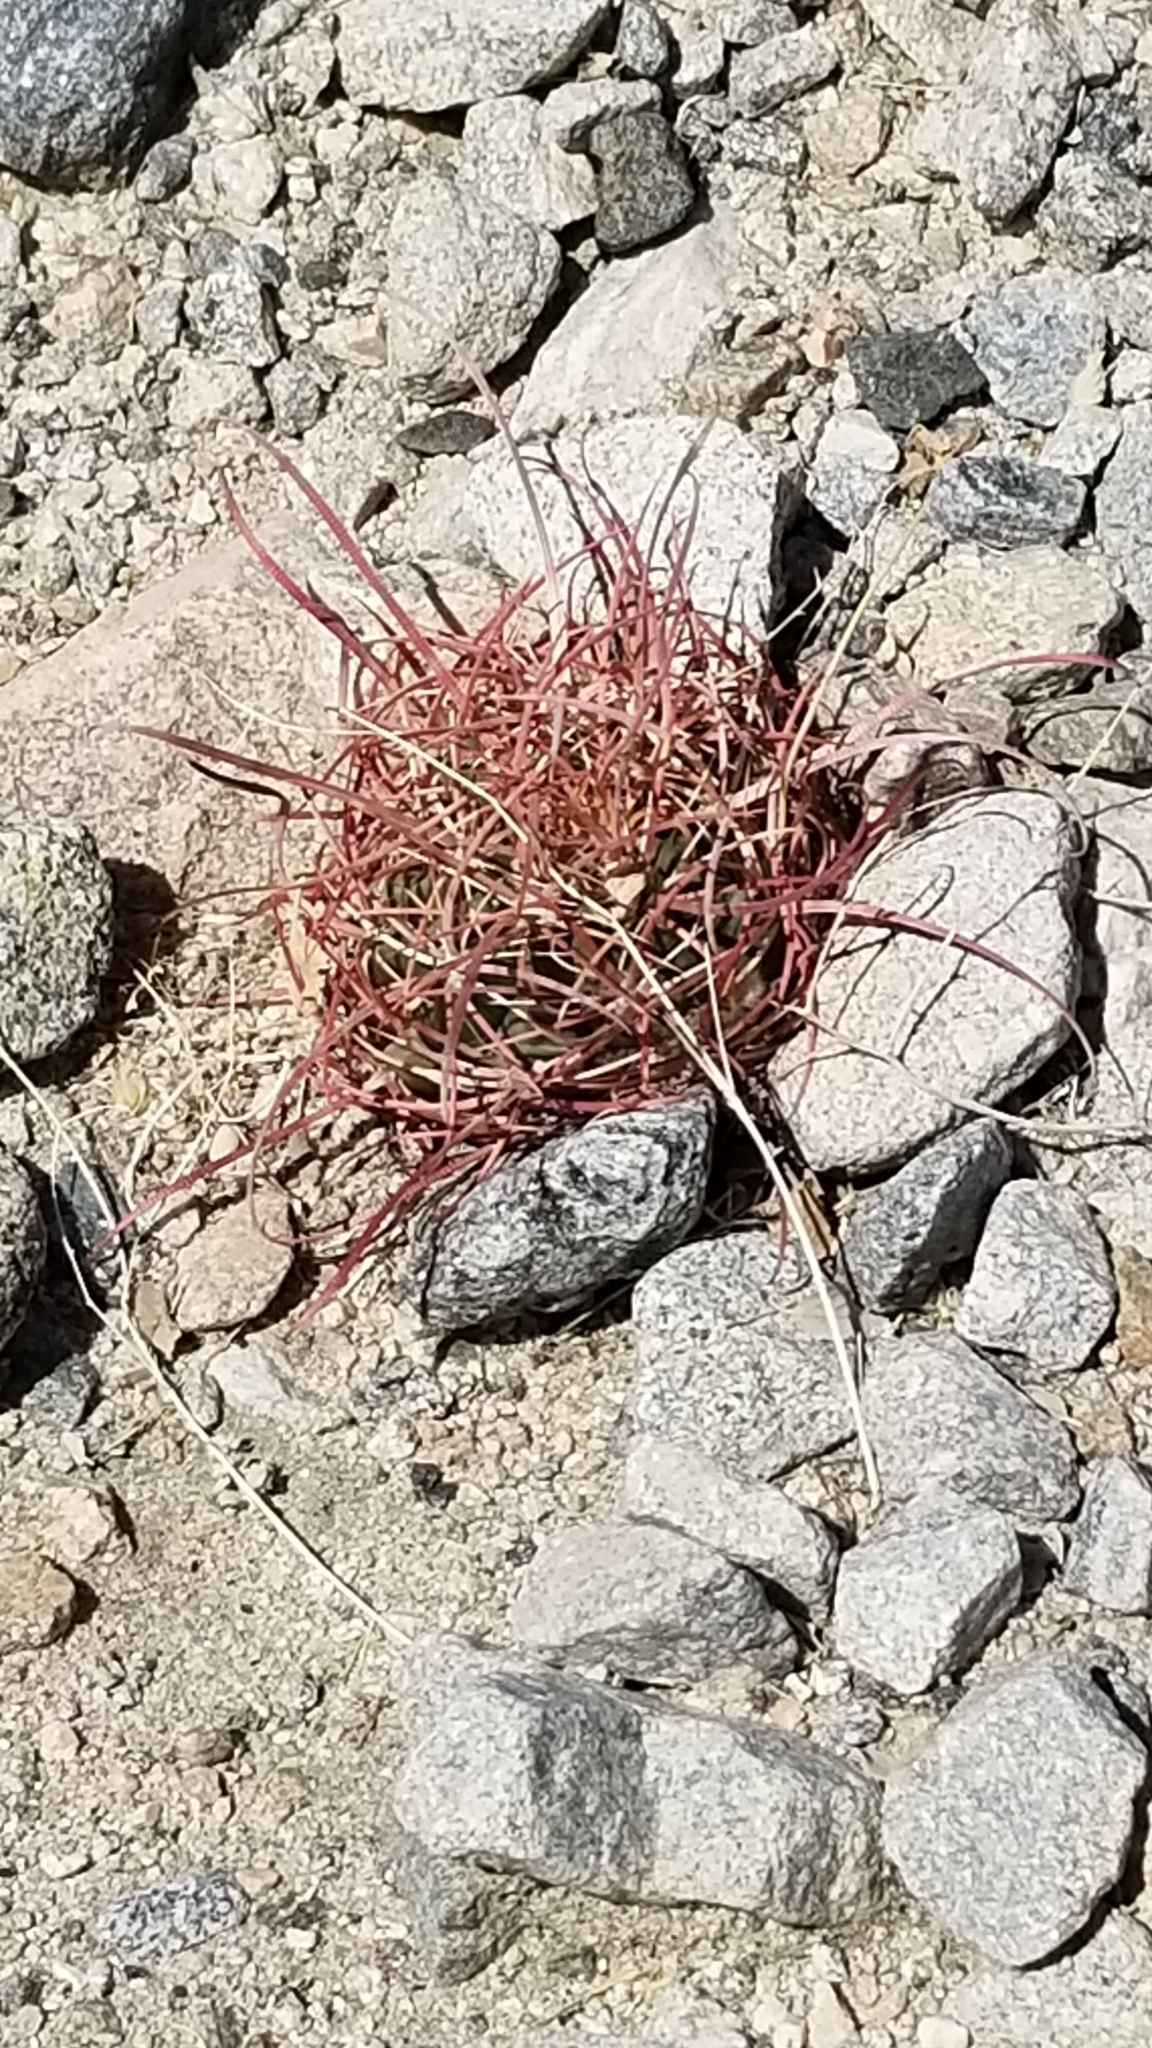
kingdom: Plantae
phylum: Tracheophyta
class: Magnoliopsida
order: Caryophyllales
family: Cactaceae
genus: Ferocactus
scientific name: Ferocactus cylindraceus
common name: California barrel cactus
